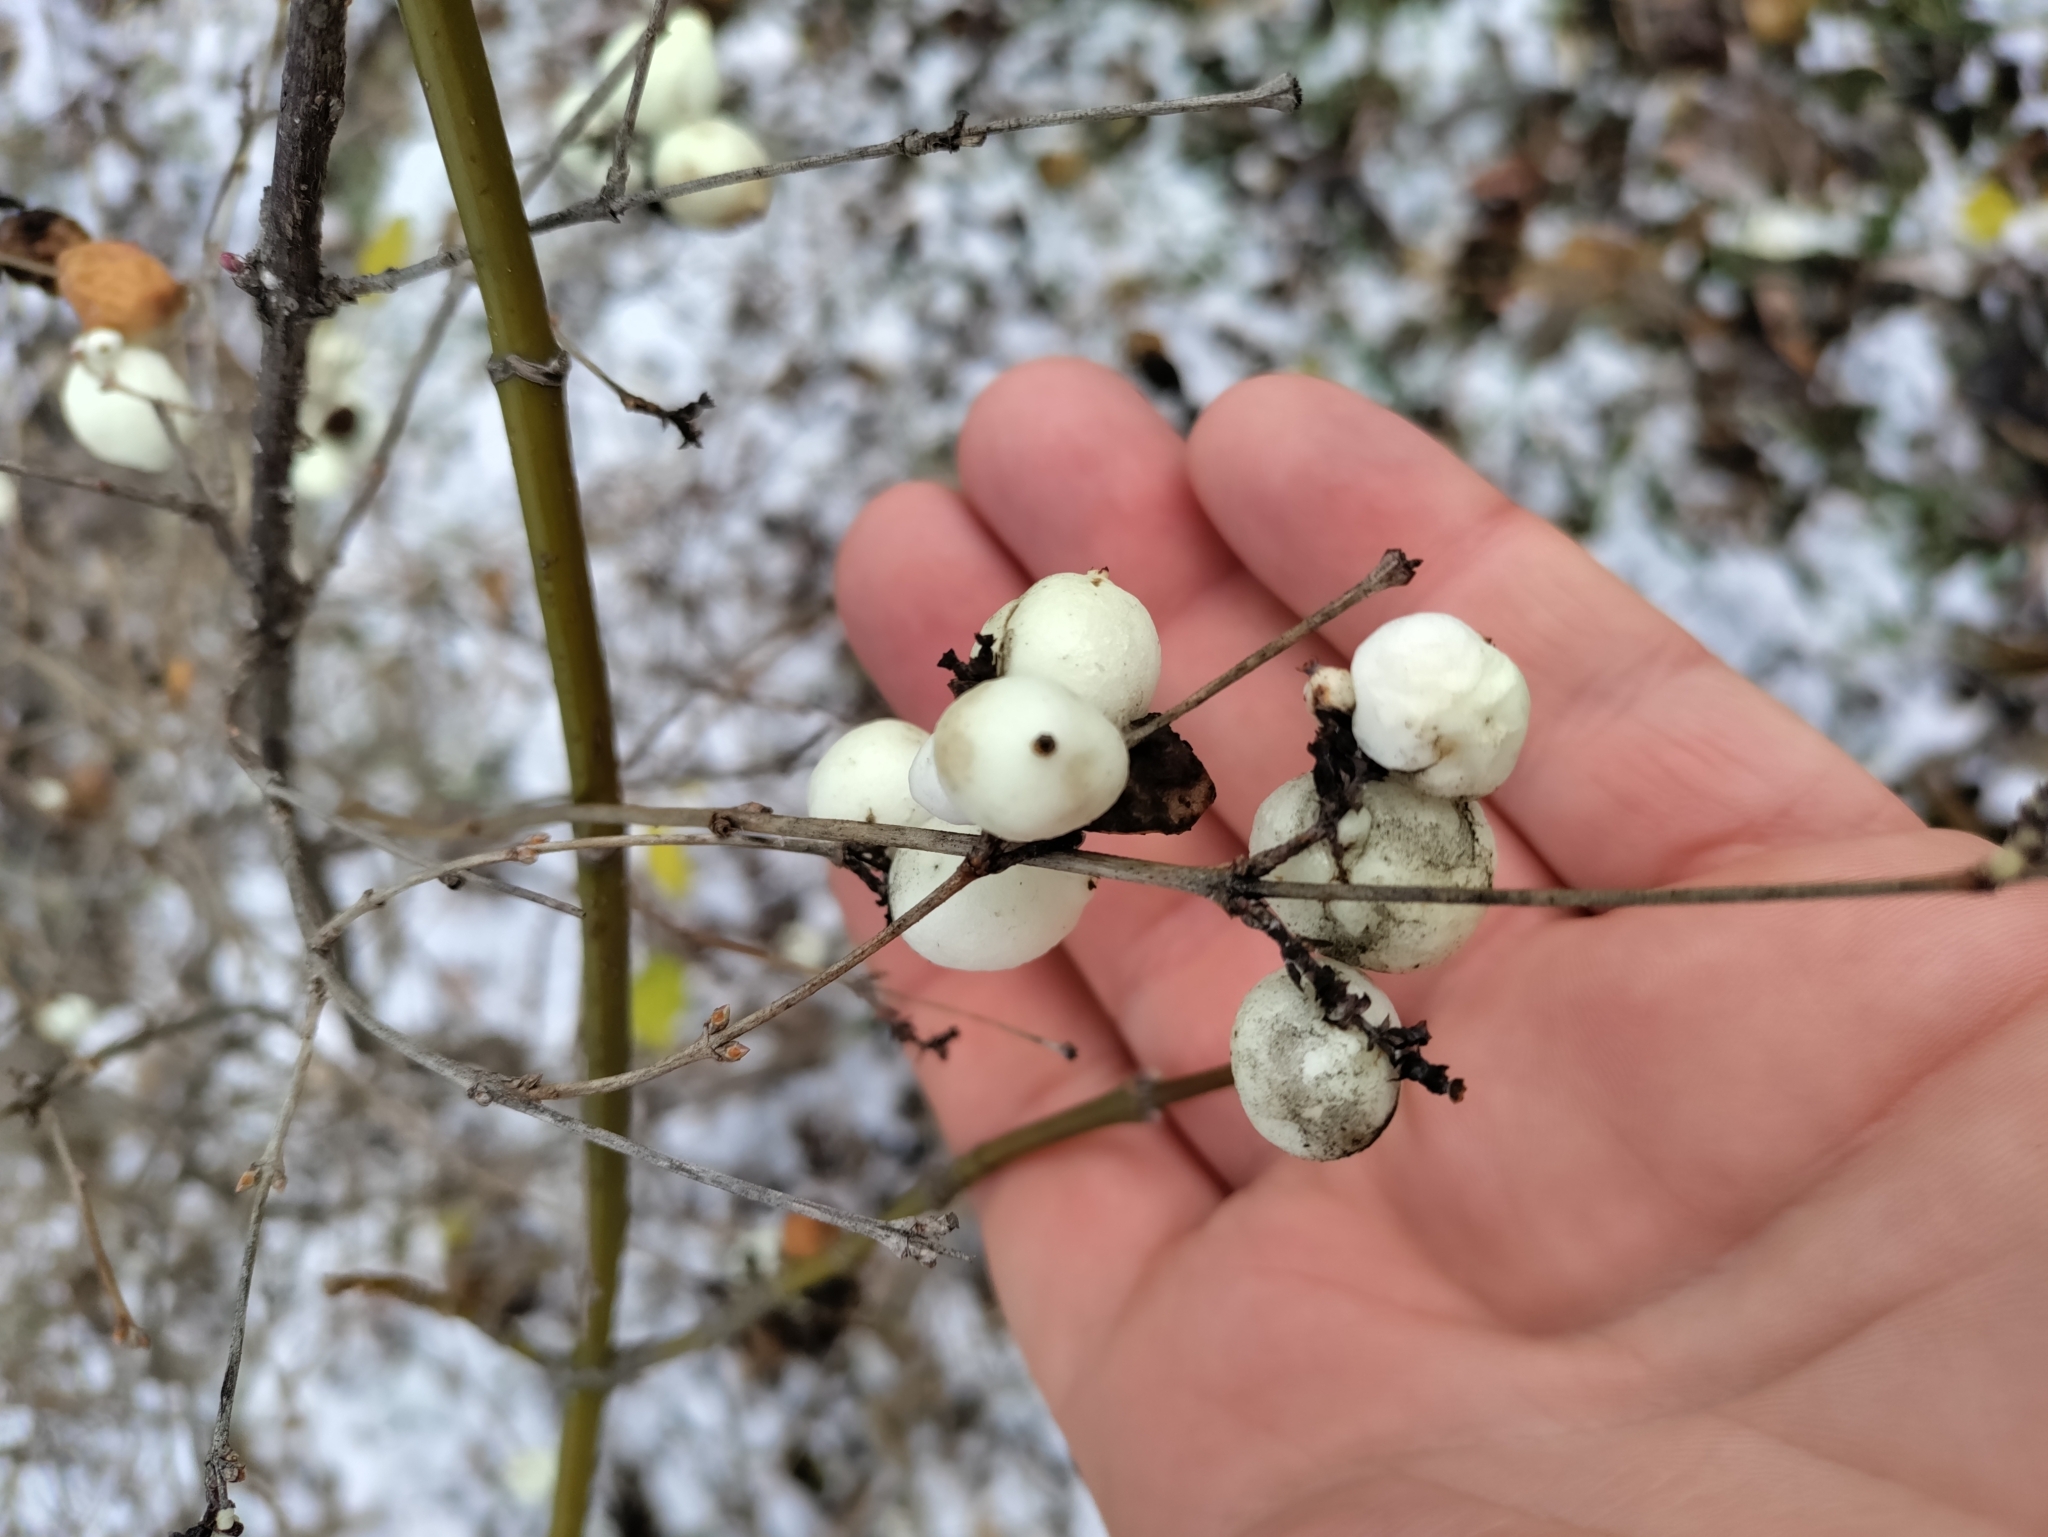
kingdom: Plantae
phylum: Tracheophyta
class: Magnoliopsida
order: Dipsacales
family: Caprifoliaceae
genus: Symphoricarpos
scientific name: Symphoricarpos albus
